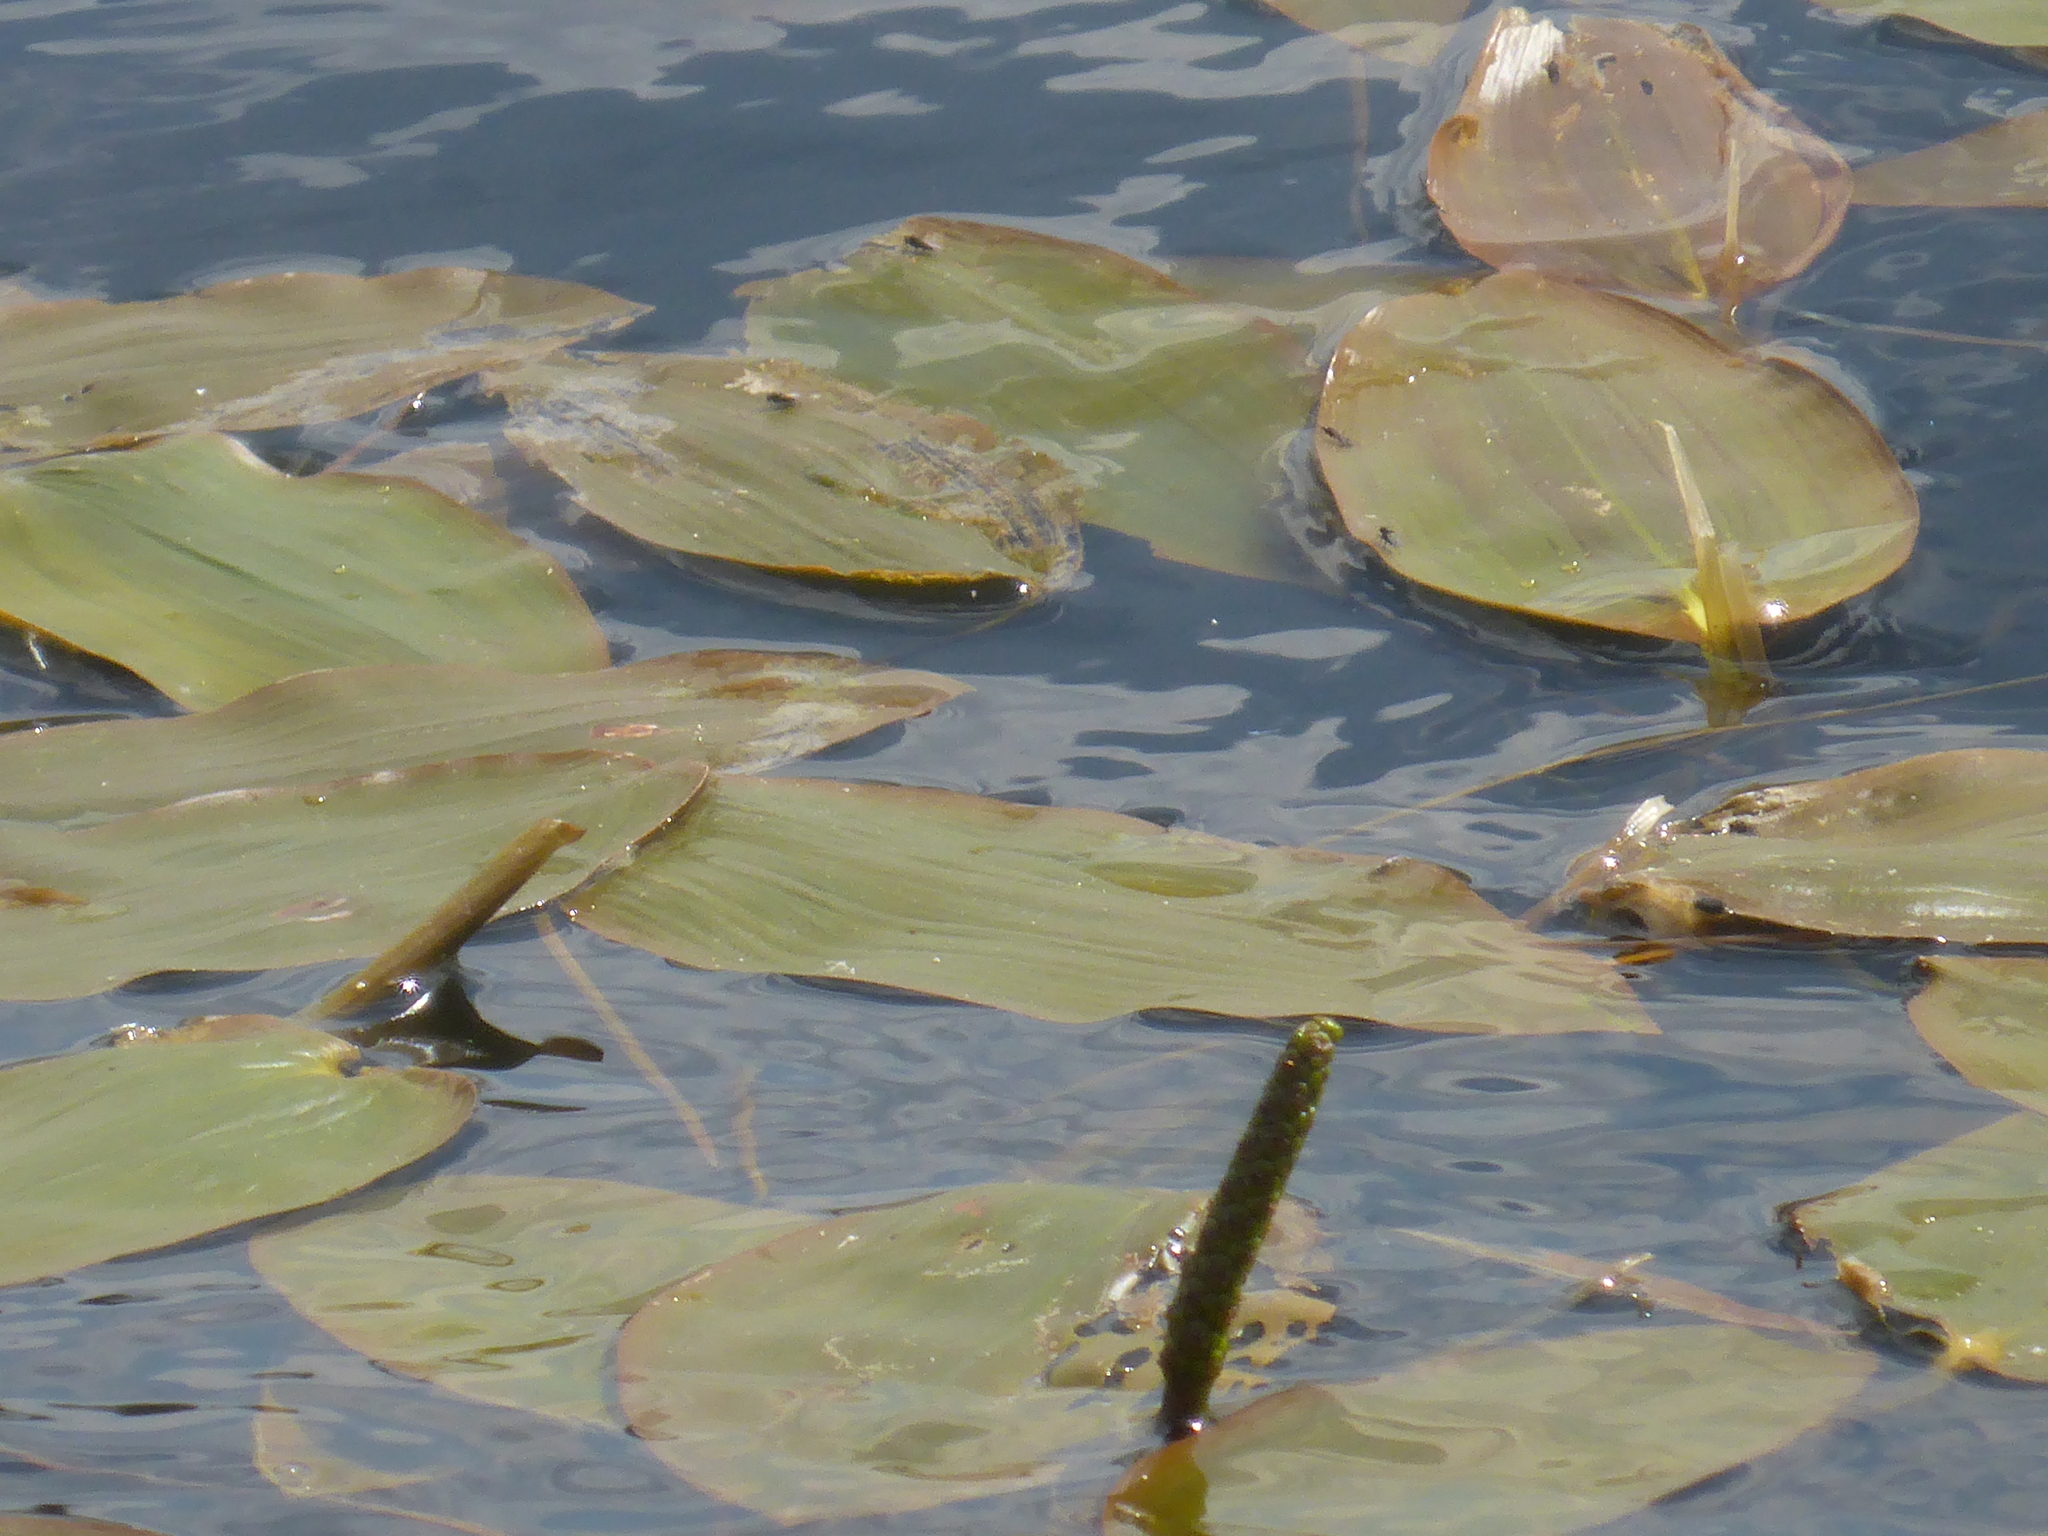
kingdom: Plantae
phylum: Tracheophyta
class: Liliopsida
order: Alismatales
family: Potamogetonaceae
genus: Potamogeton
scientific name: Potamogeton natans
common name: Broad-leaved pondweed
